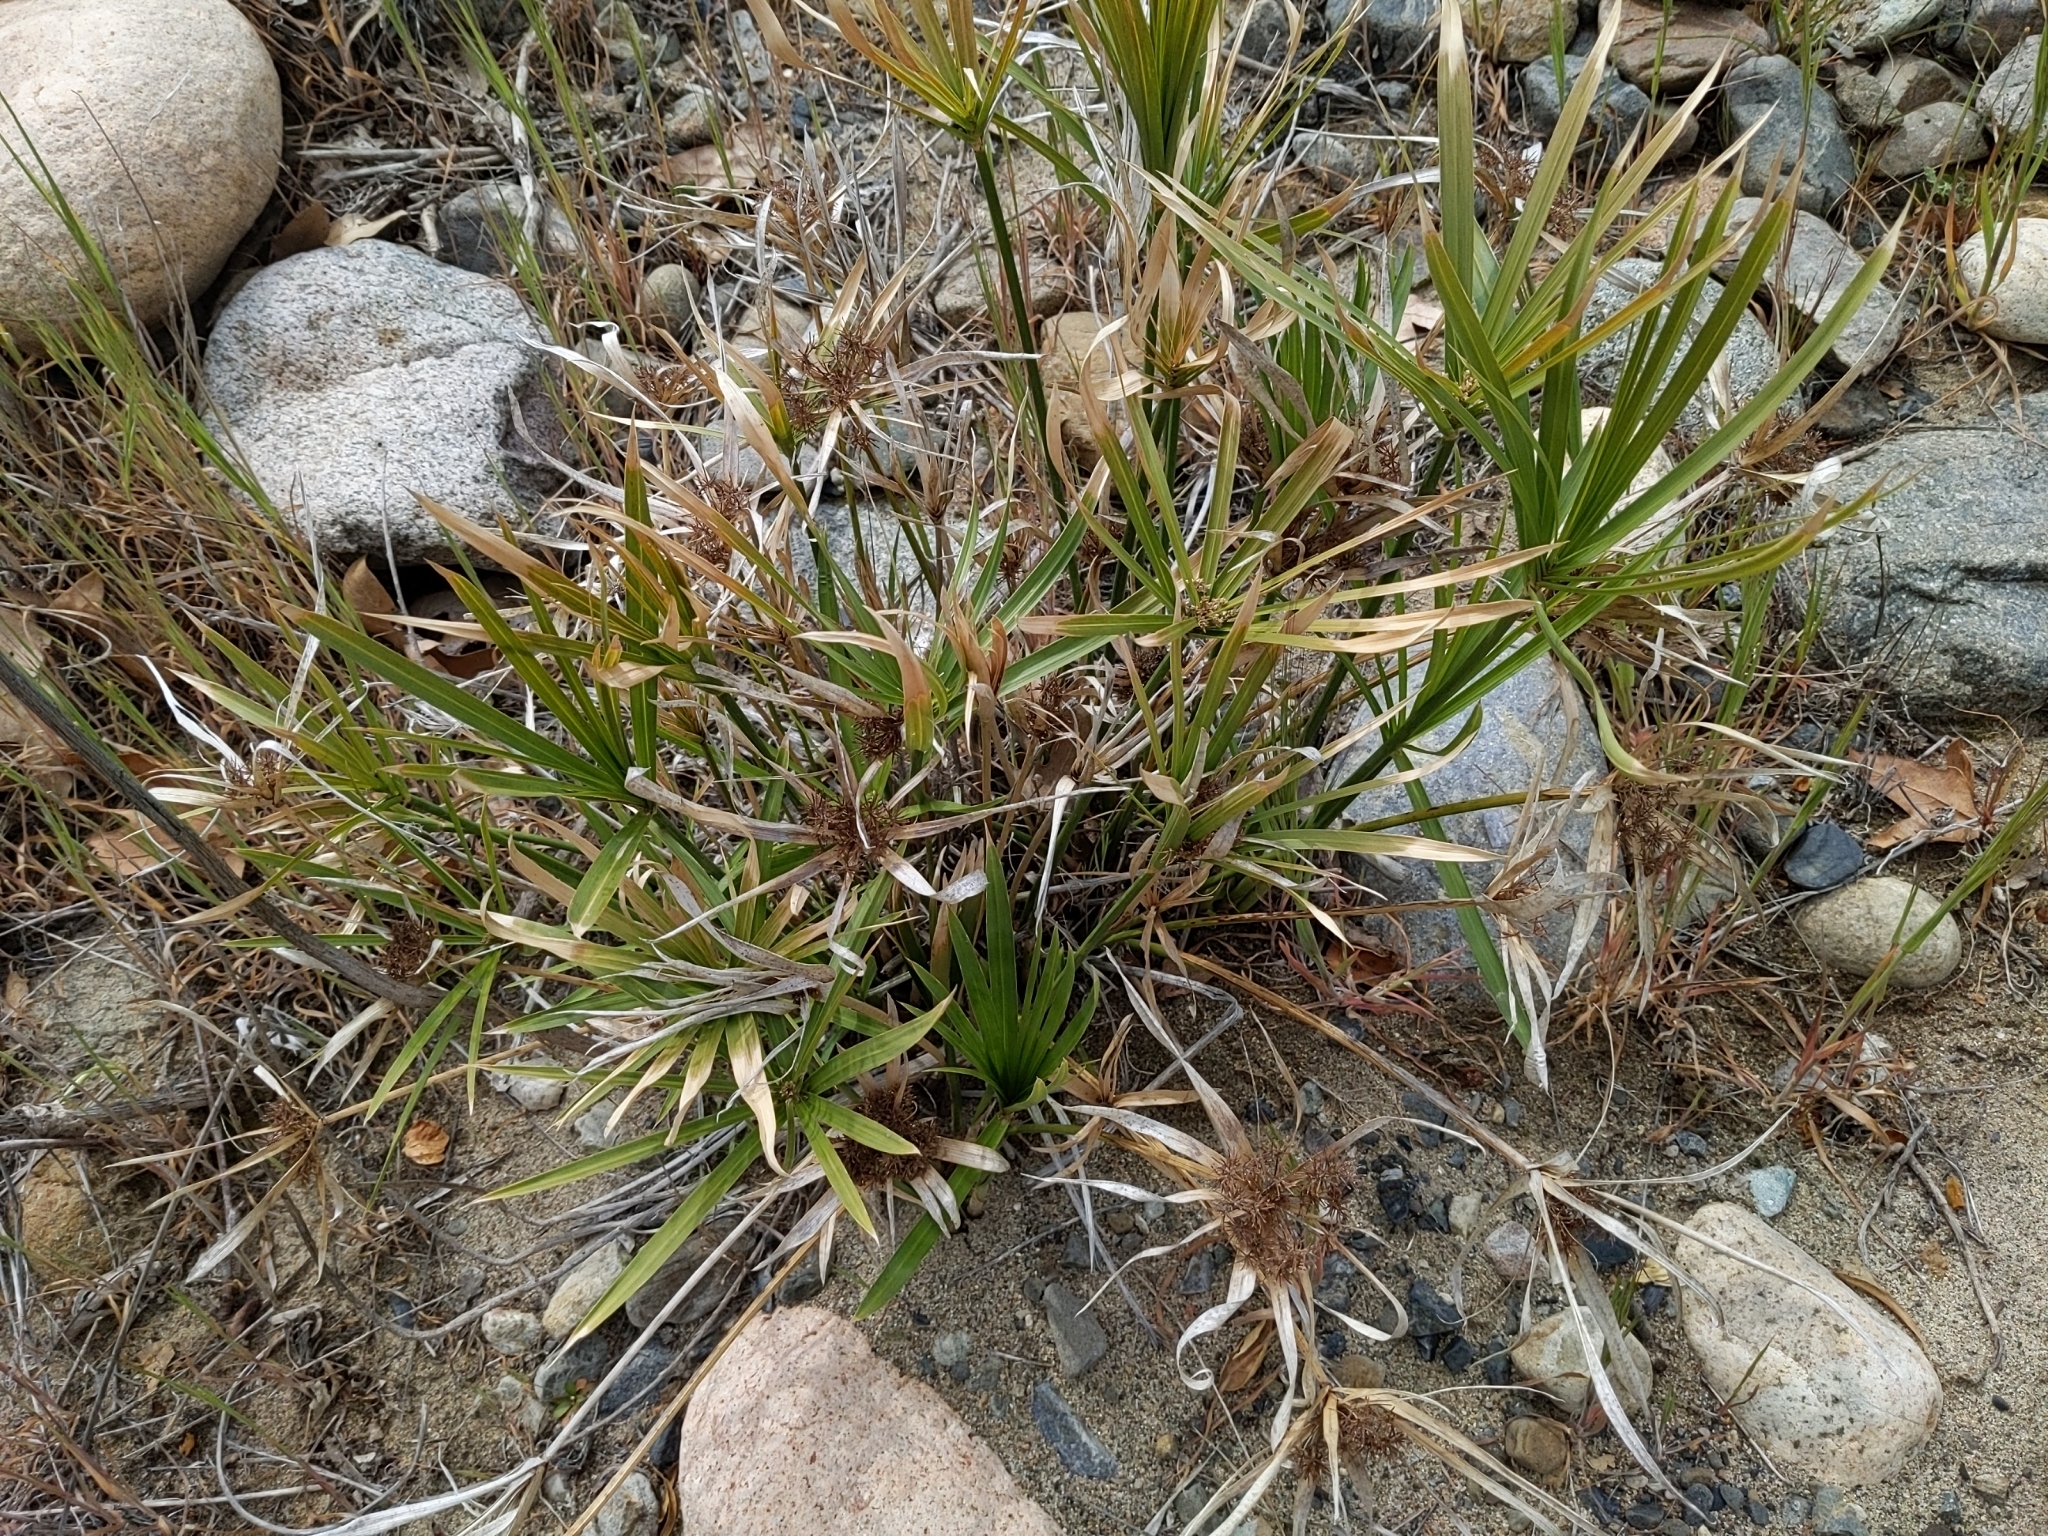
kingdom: Plantae
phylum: Tracheophyta
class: Liliopsida
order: Poales
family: Cyperaceae
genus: Cyperus
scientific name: Cyperus alternifolius
